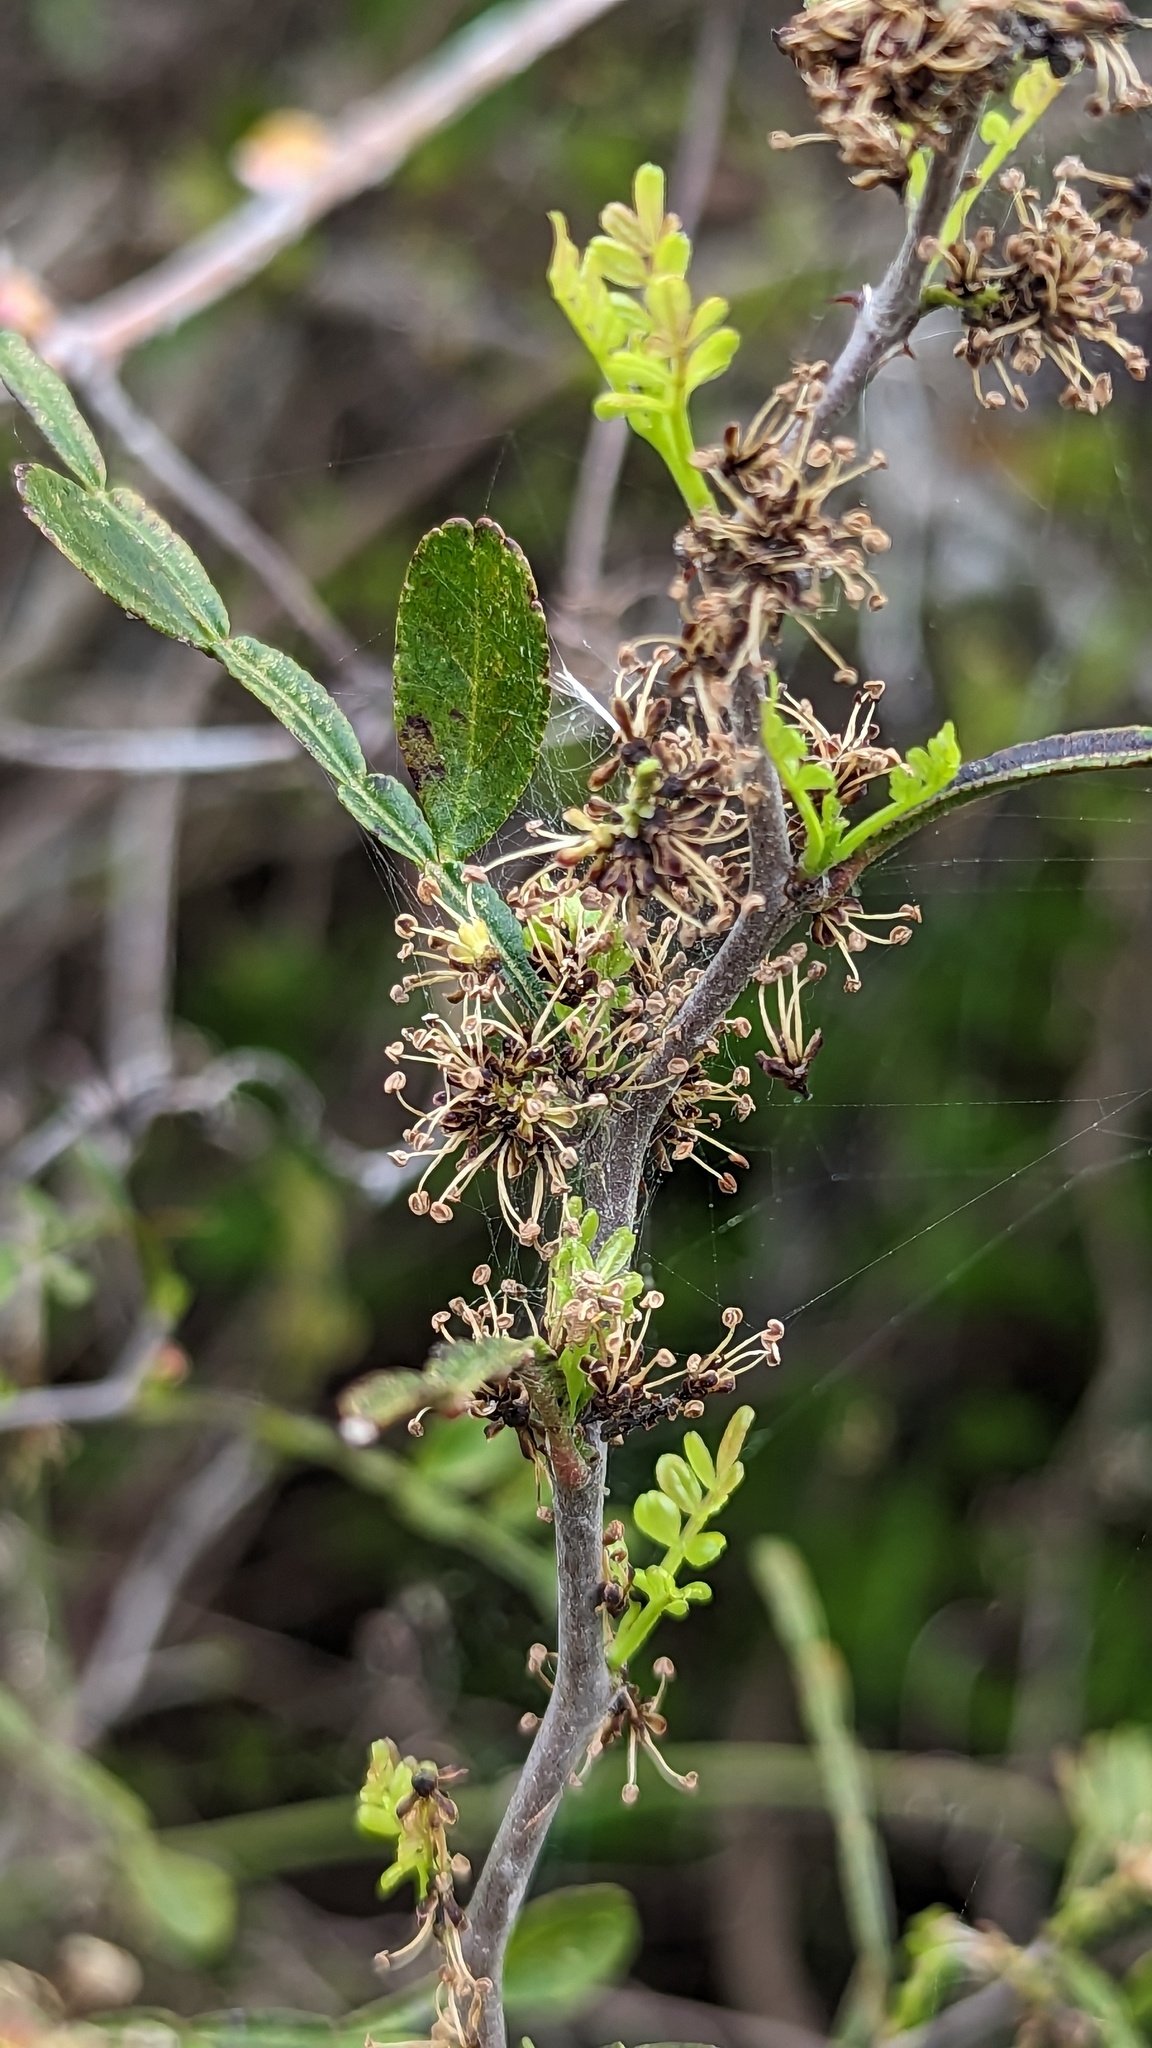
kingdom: Plantae
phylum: Tracheophyta
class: Magnoliopsida
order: Sapindales
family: Rutaceae
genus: Zanthoxylum
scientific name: Zanthoxylum fagara
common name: Lime prickly-ash
